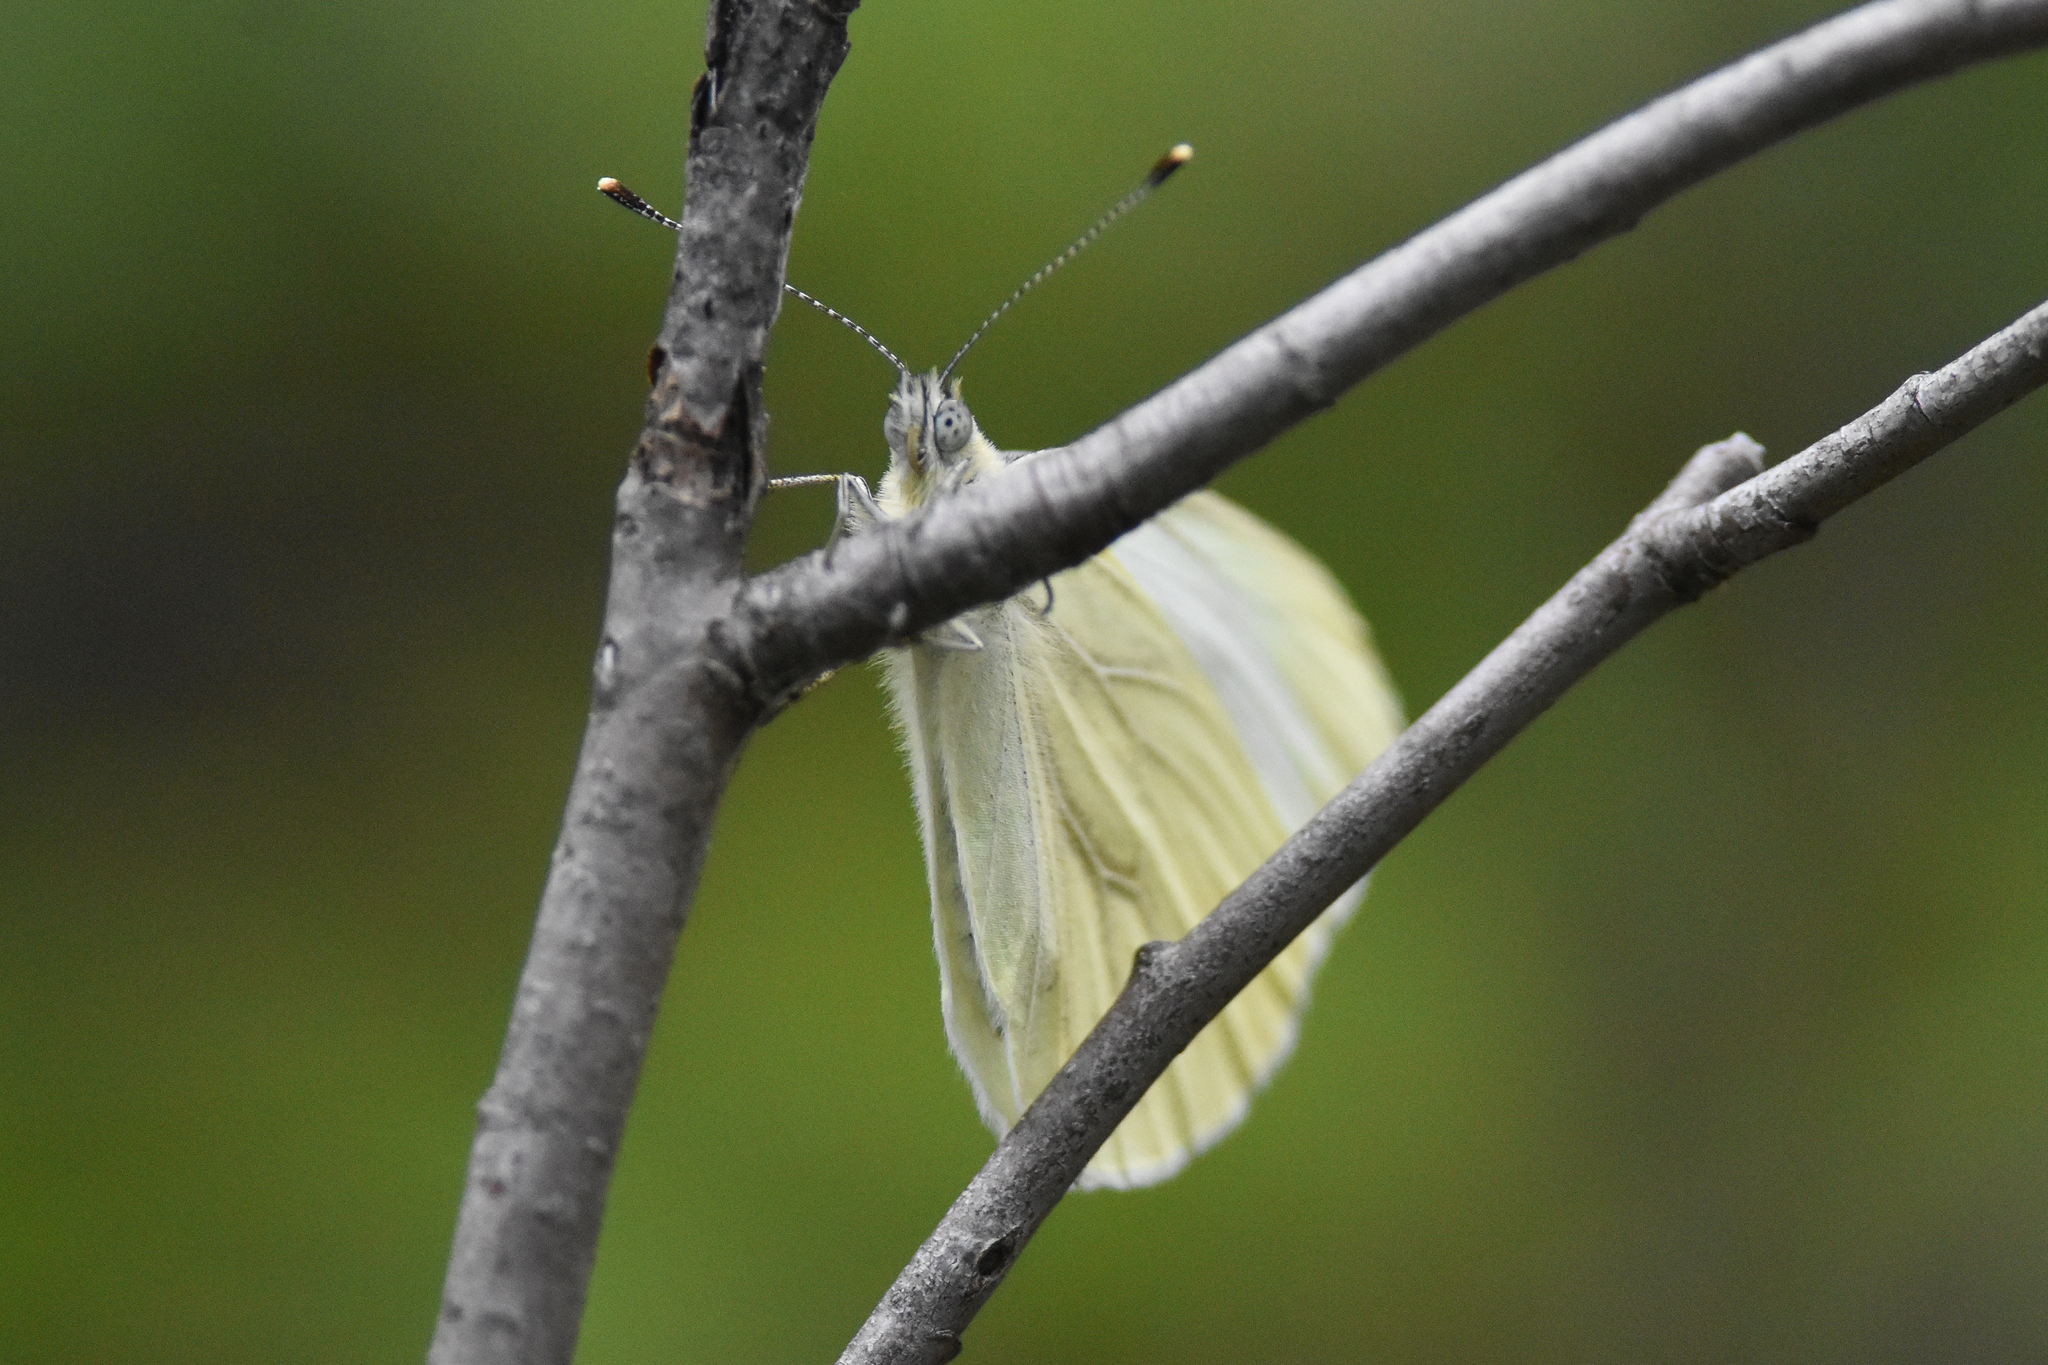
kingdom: Animalia
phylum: Arthropoda
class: Insecta
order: Lepidoptera
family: Pieridae
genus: Pieris
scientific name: Pieris marginalis
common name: Margined white
